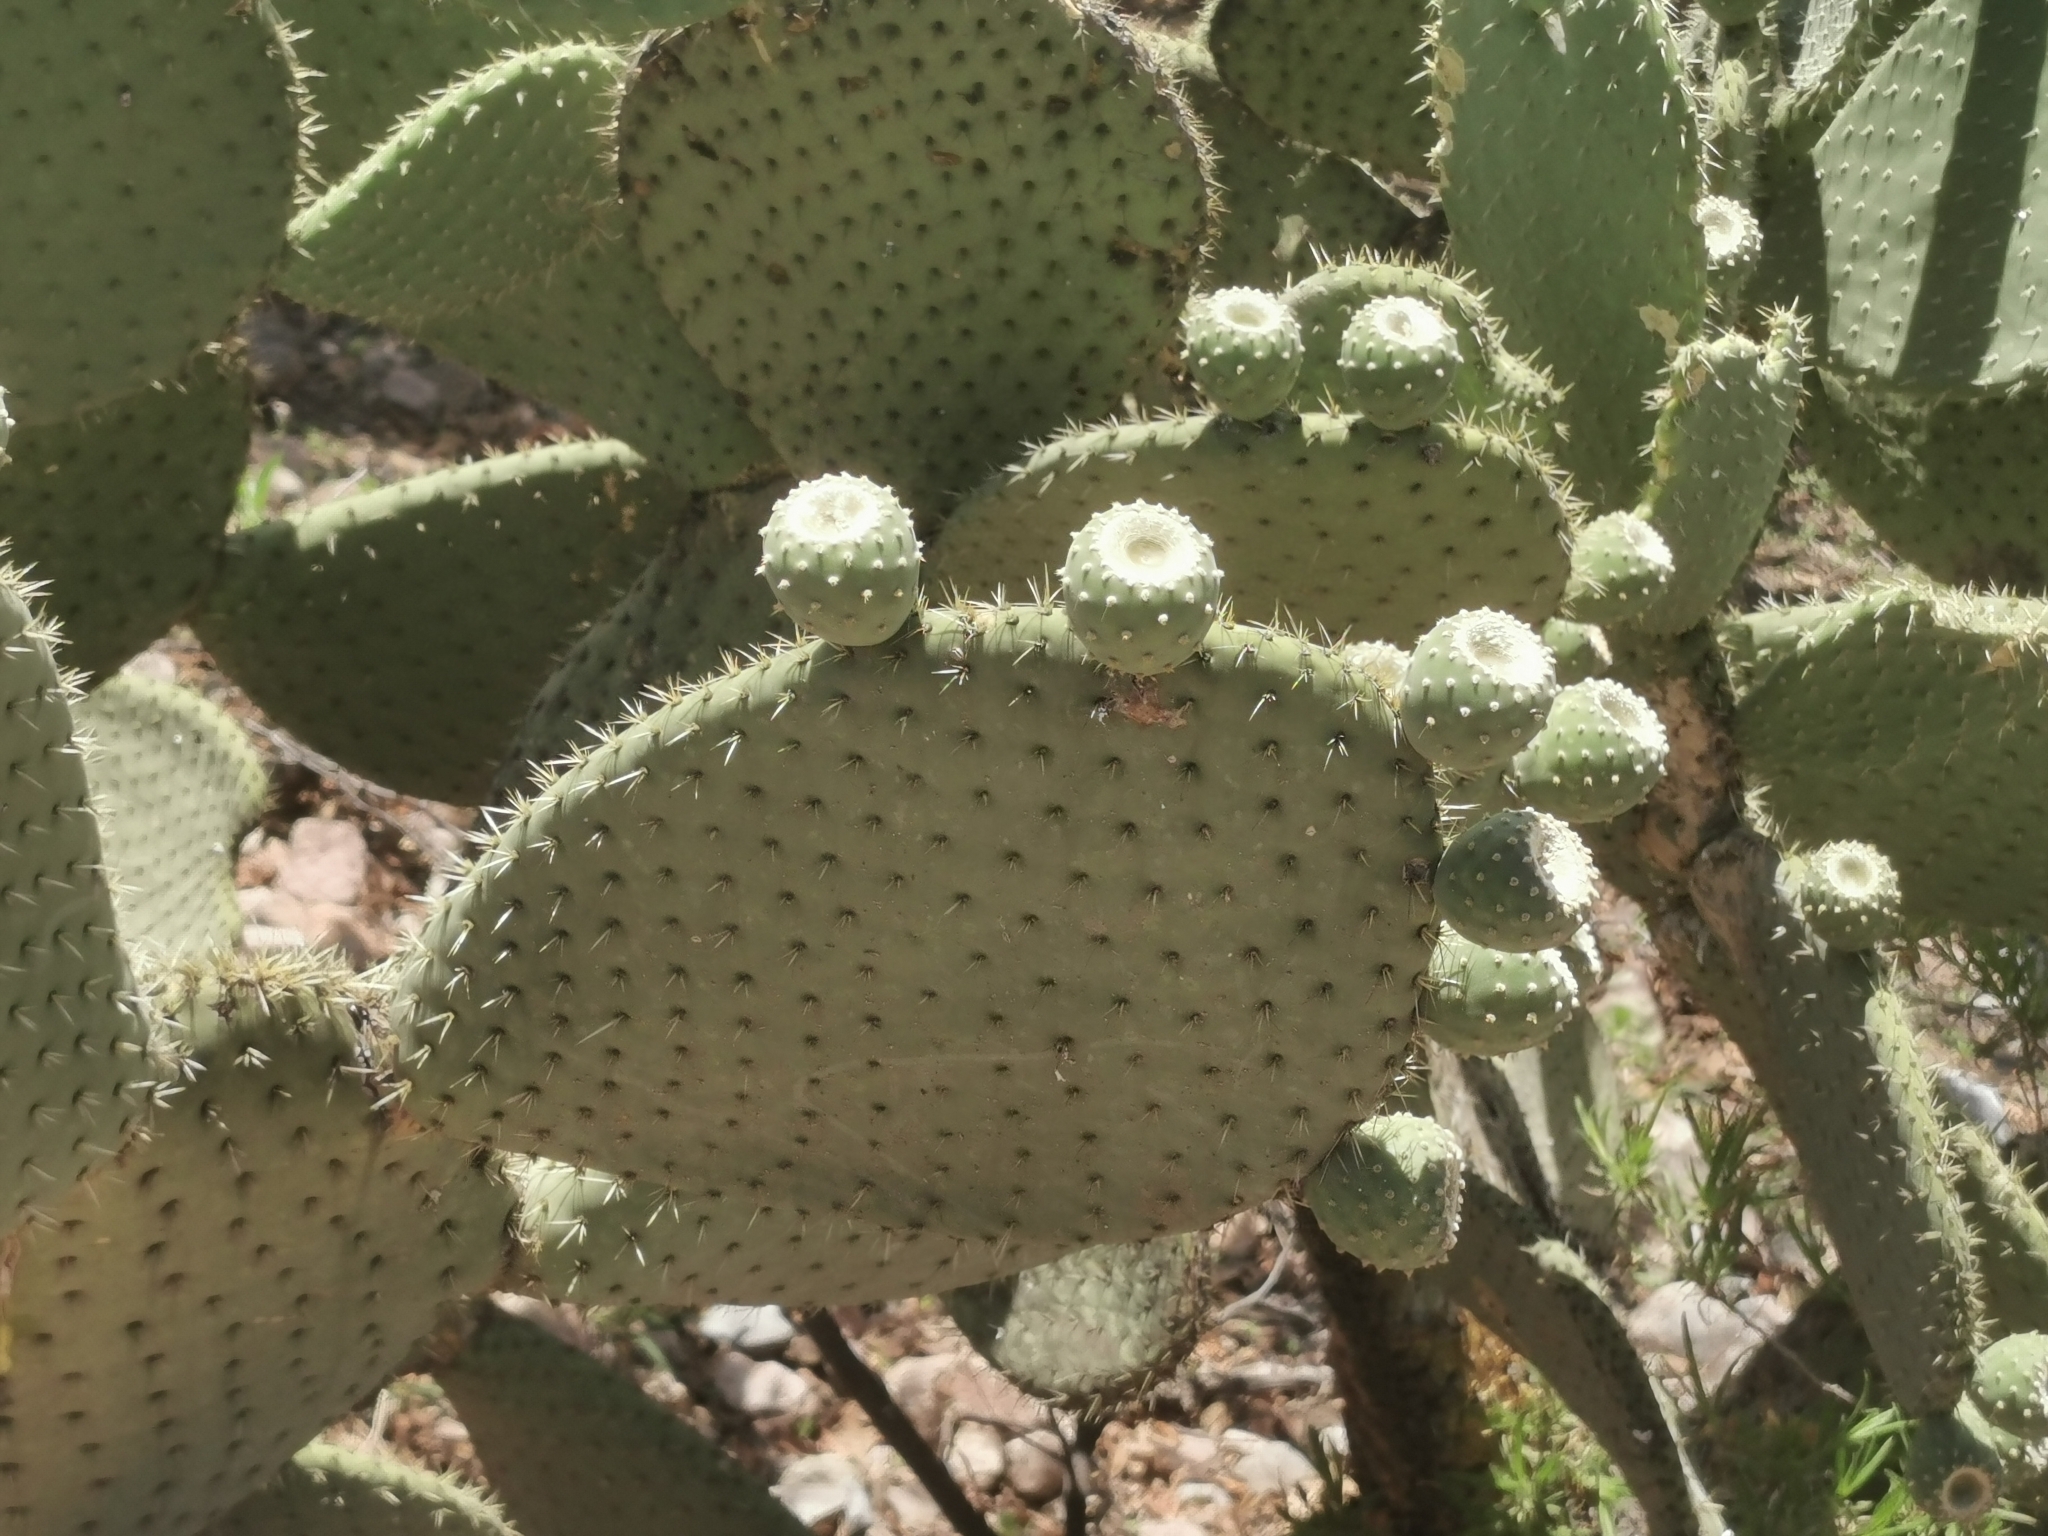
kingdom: Plantae
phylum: Tracheophyta
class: Magnoliopsida
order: Caryophyllales
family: Cactaceae
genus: Opuntia
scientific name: Opuntia leucotricha
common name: Arborescent pricklypear
